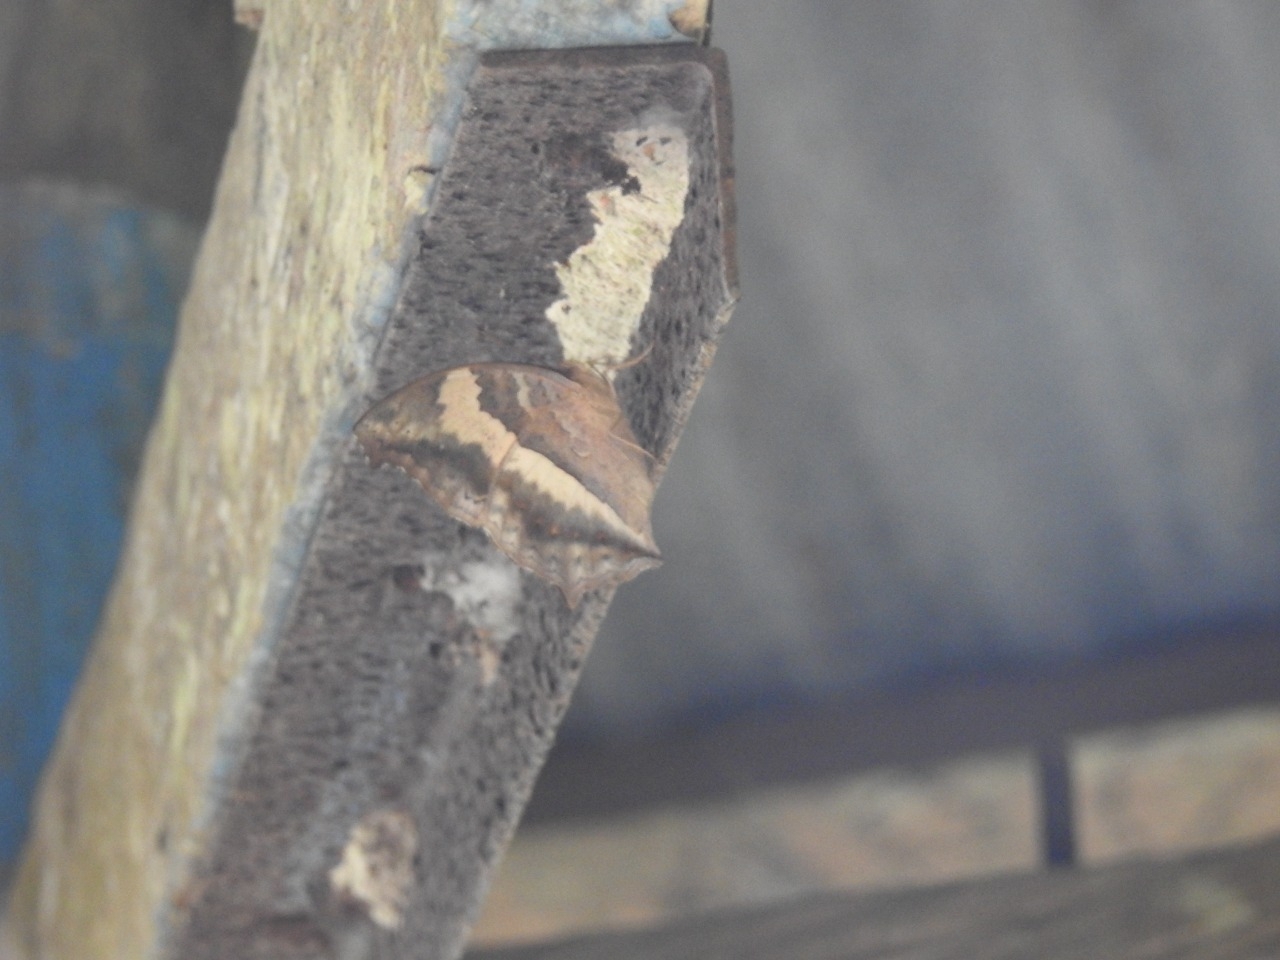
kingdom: Animalia
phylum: Arthropoda
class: Insecta
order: Lepidoptera
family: Nymphalidae
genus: Yoma
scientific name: Yoma sabina
